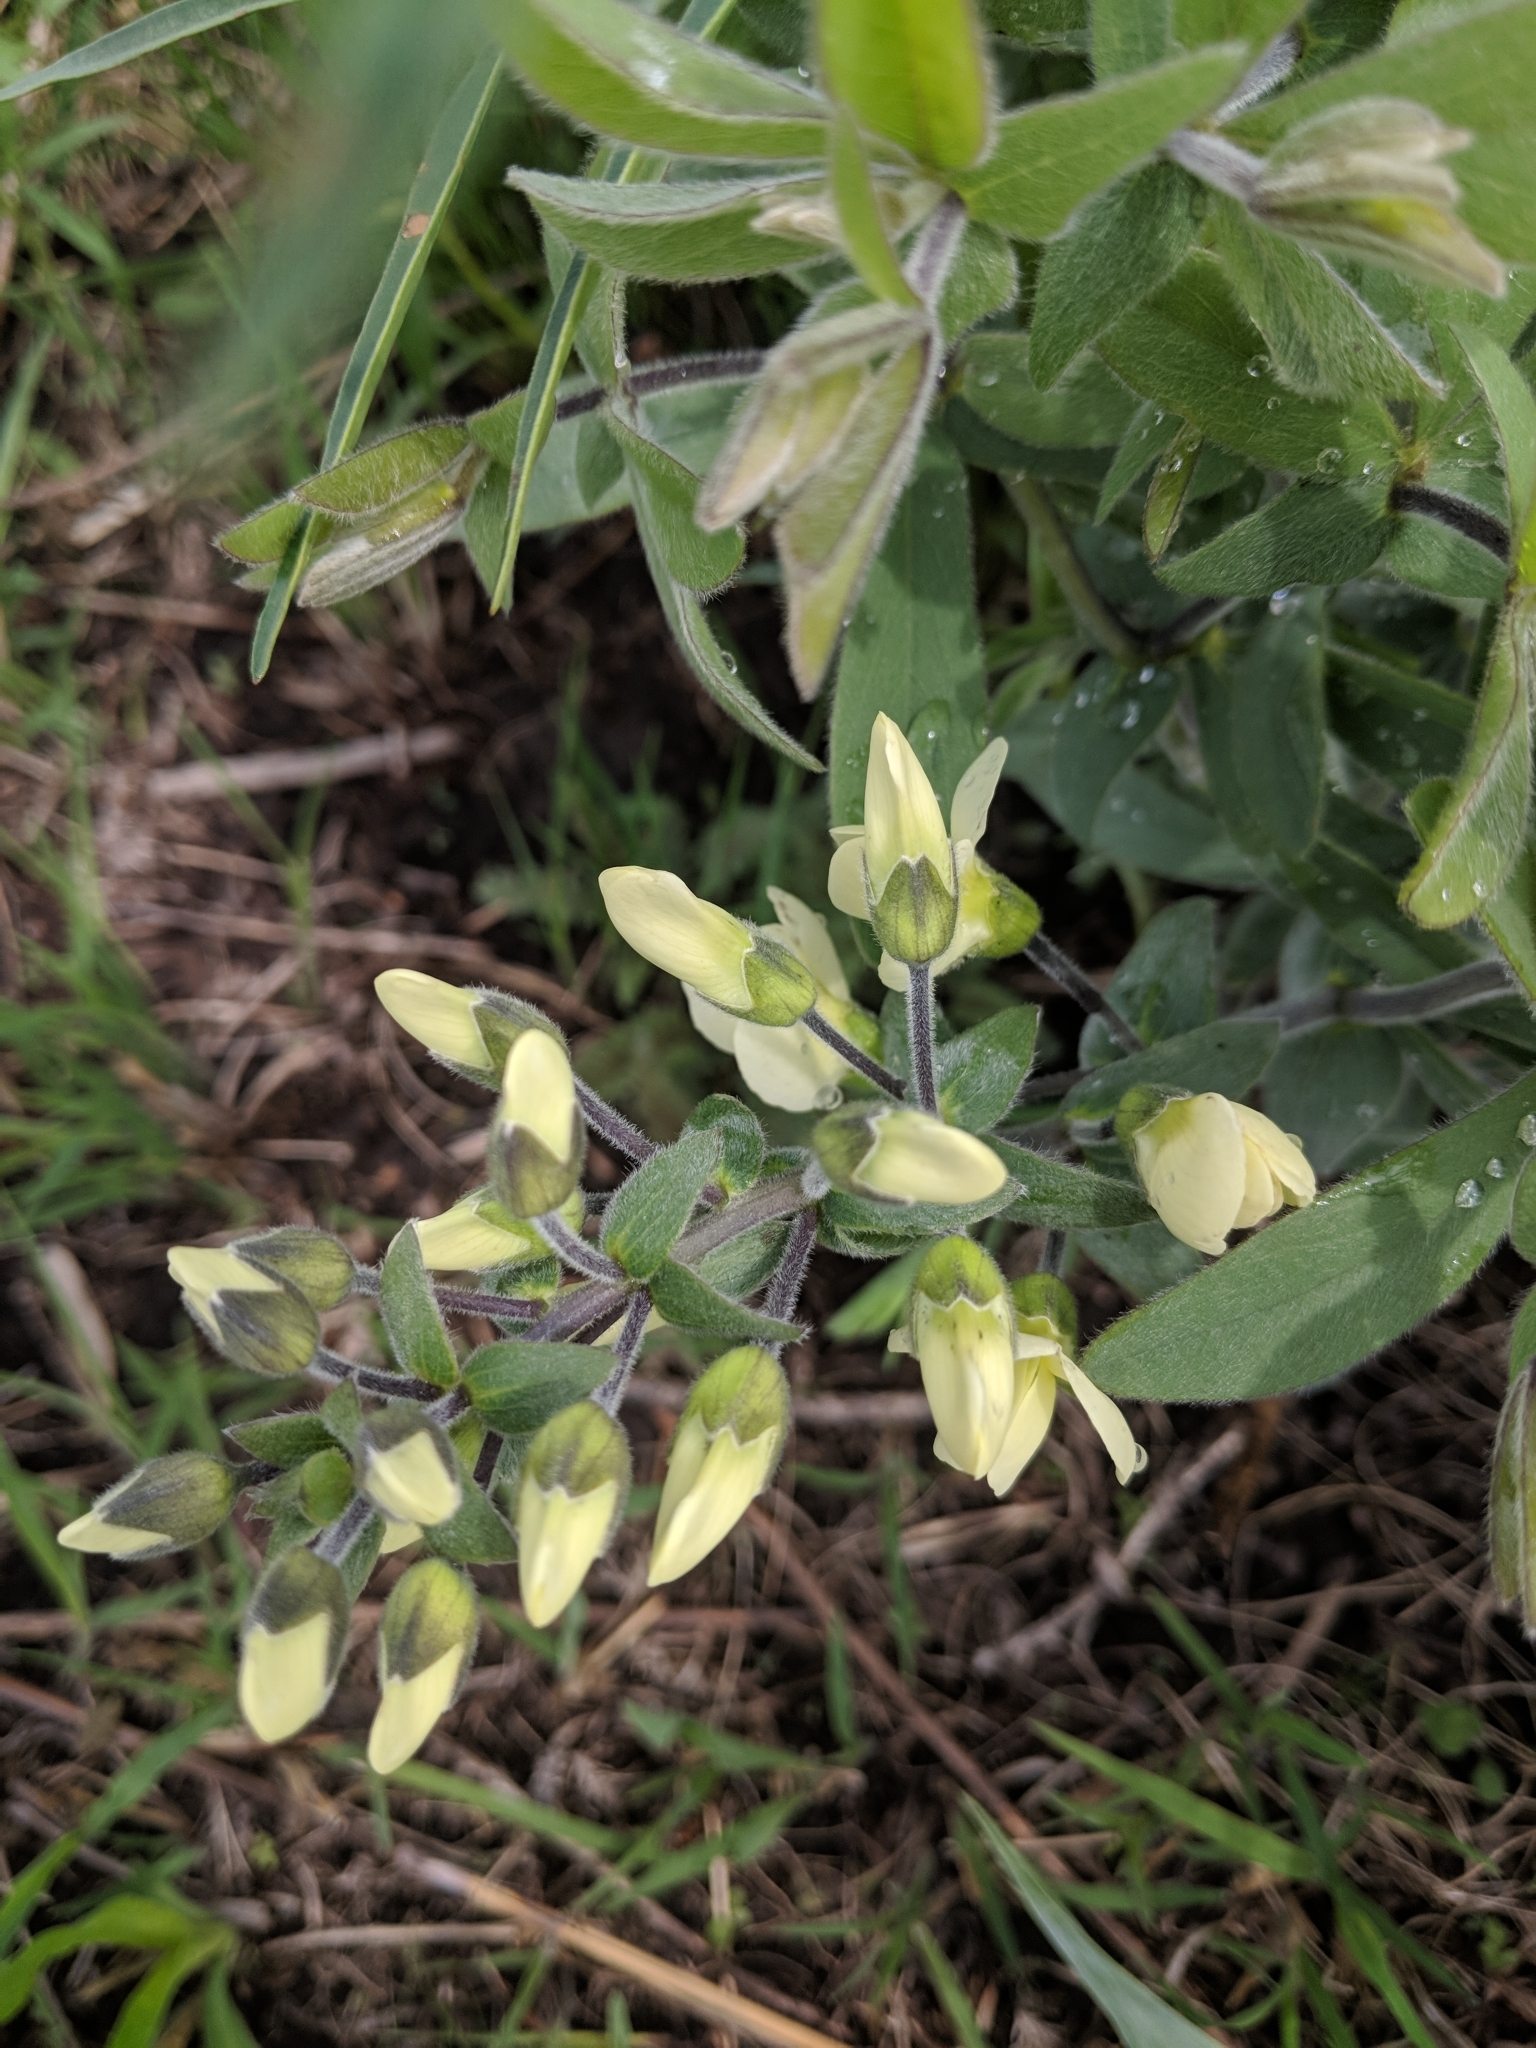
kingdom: Plantae
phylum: Tracheophyta
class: Magnoliopsida
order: Fabales
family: Fabaceae
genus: Baptisia
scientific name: Baptisia bracteata
